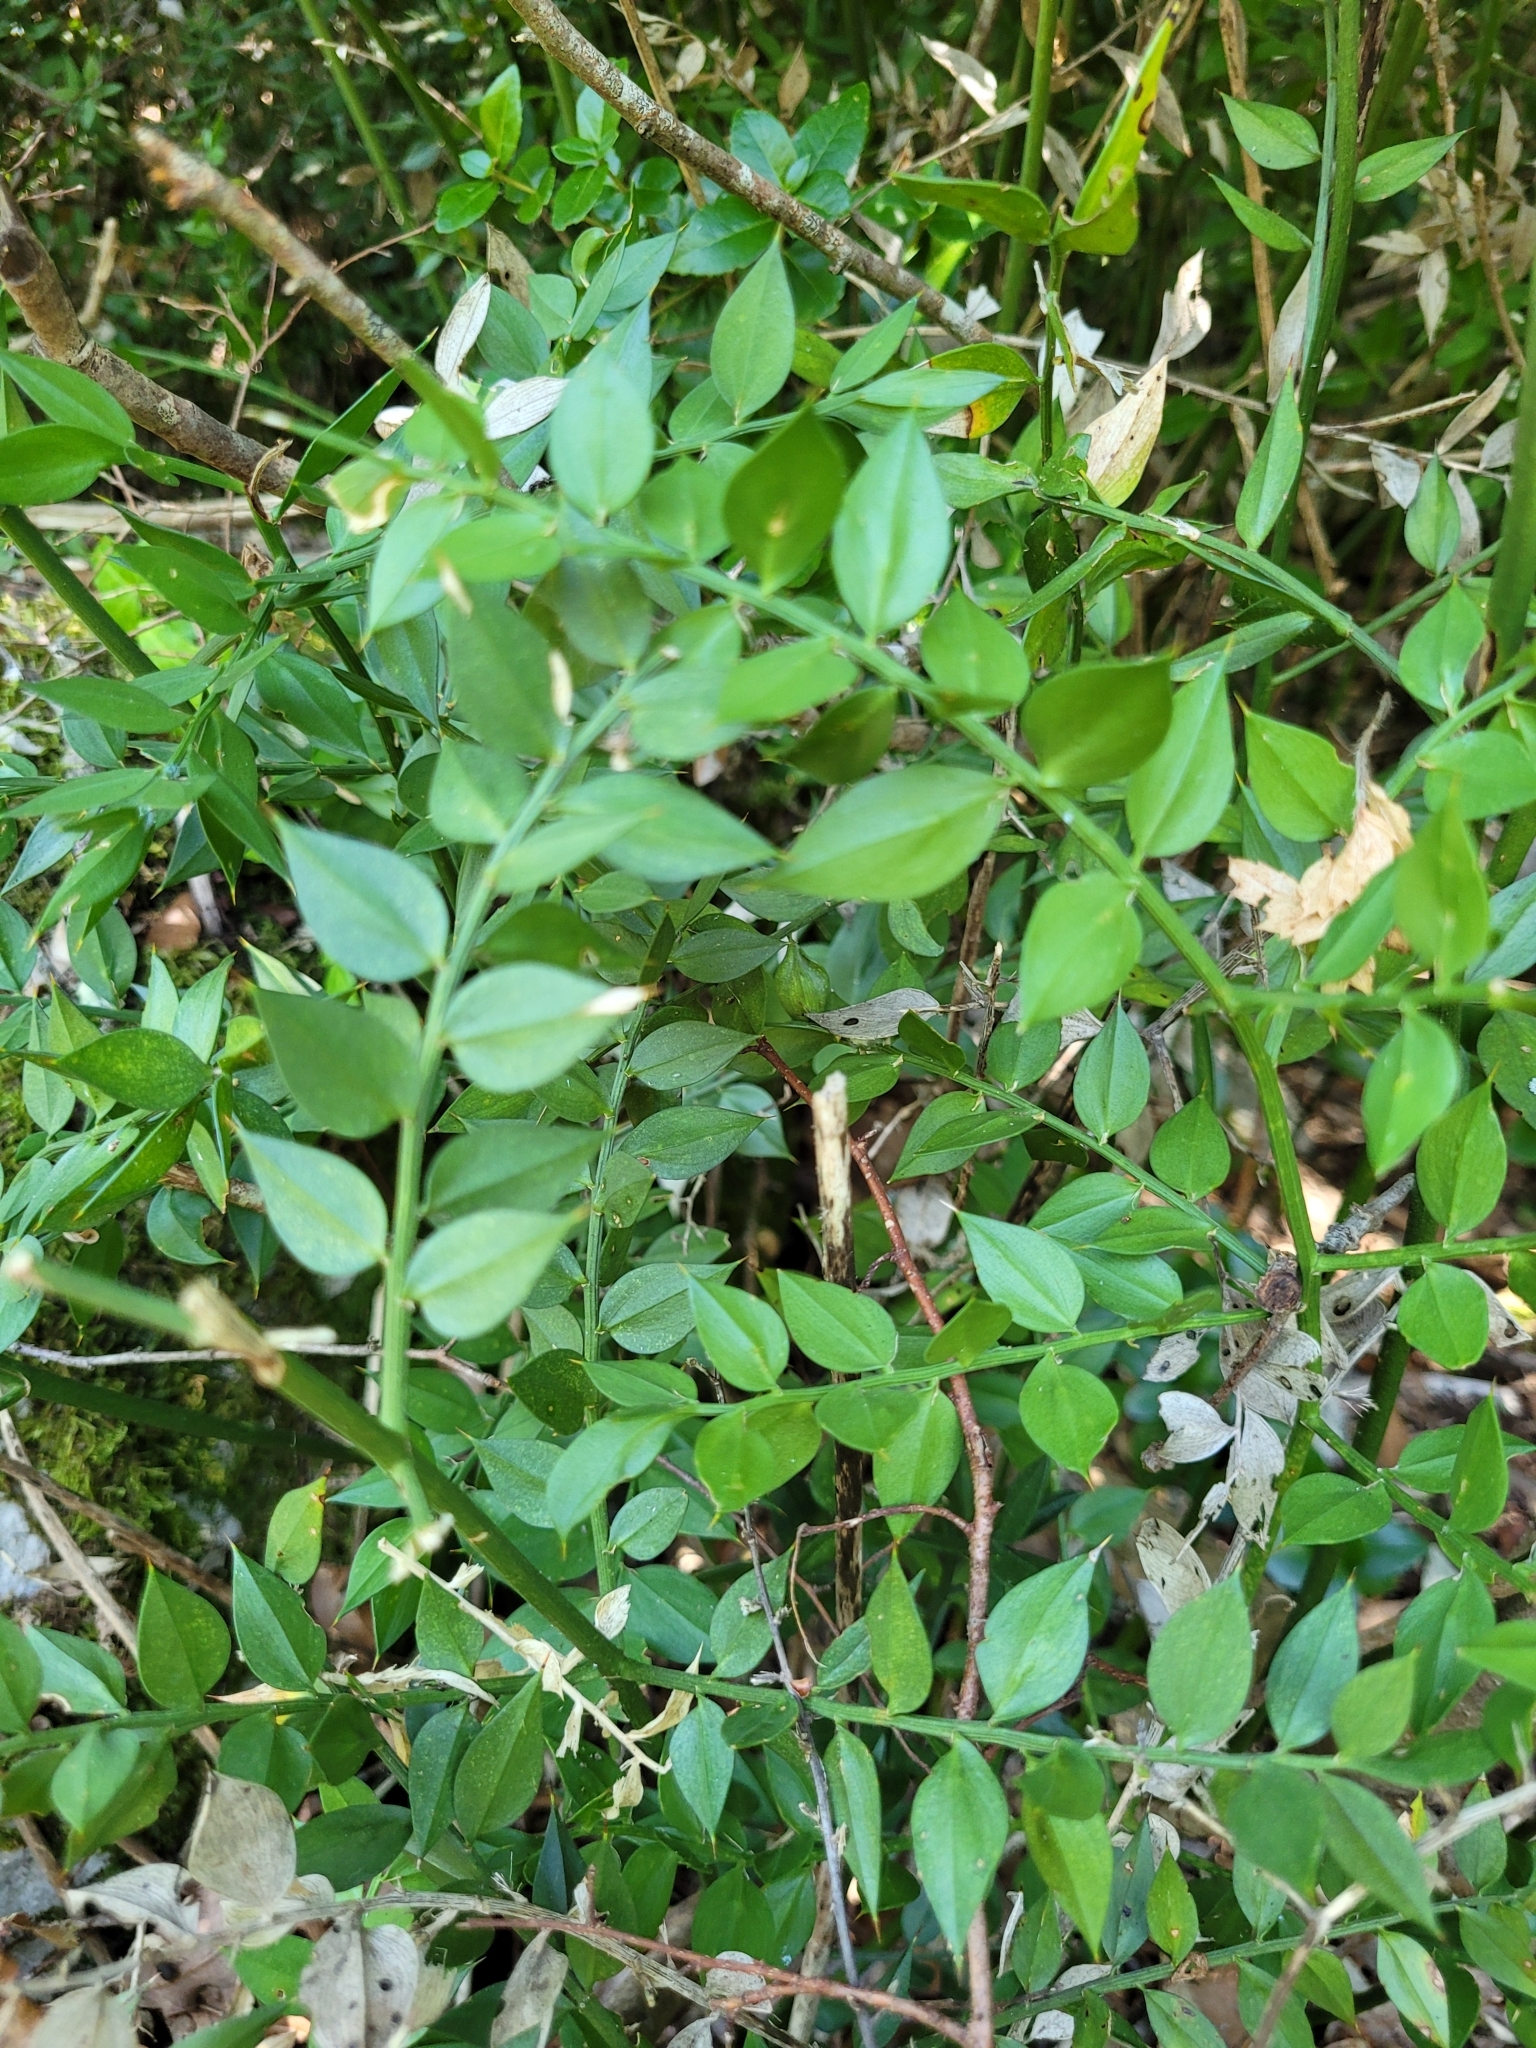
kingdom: Plantae
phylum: Tracheophyta
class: Liliopsida
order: Asparagales
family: Asparagaceae
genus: Ruscus
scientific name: Ruscus aculeatus
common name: Butcher's-broom
